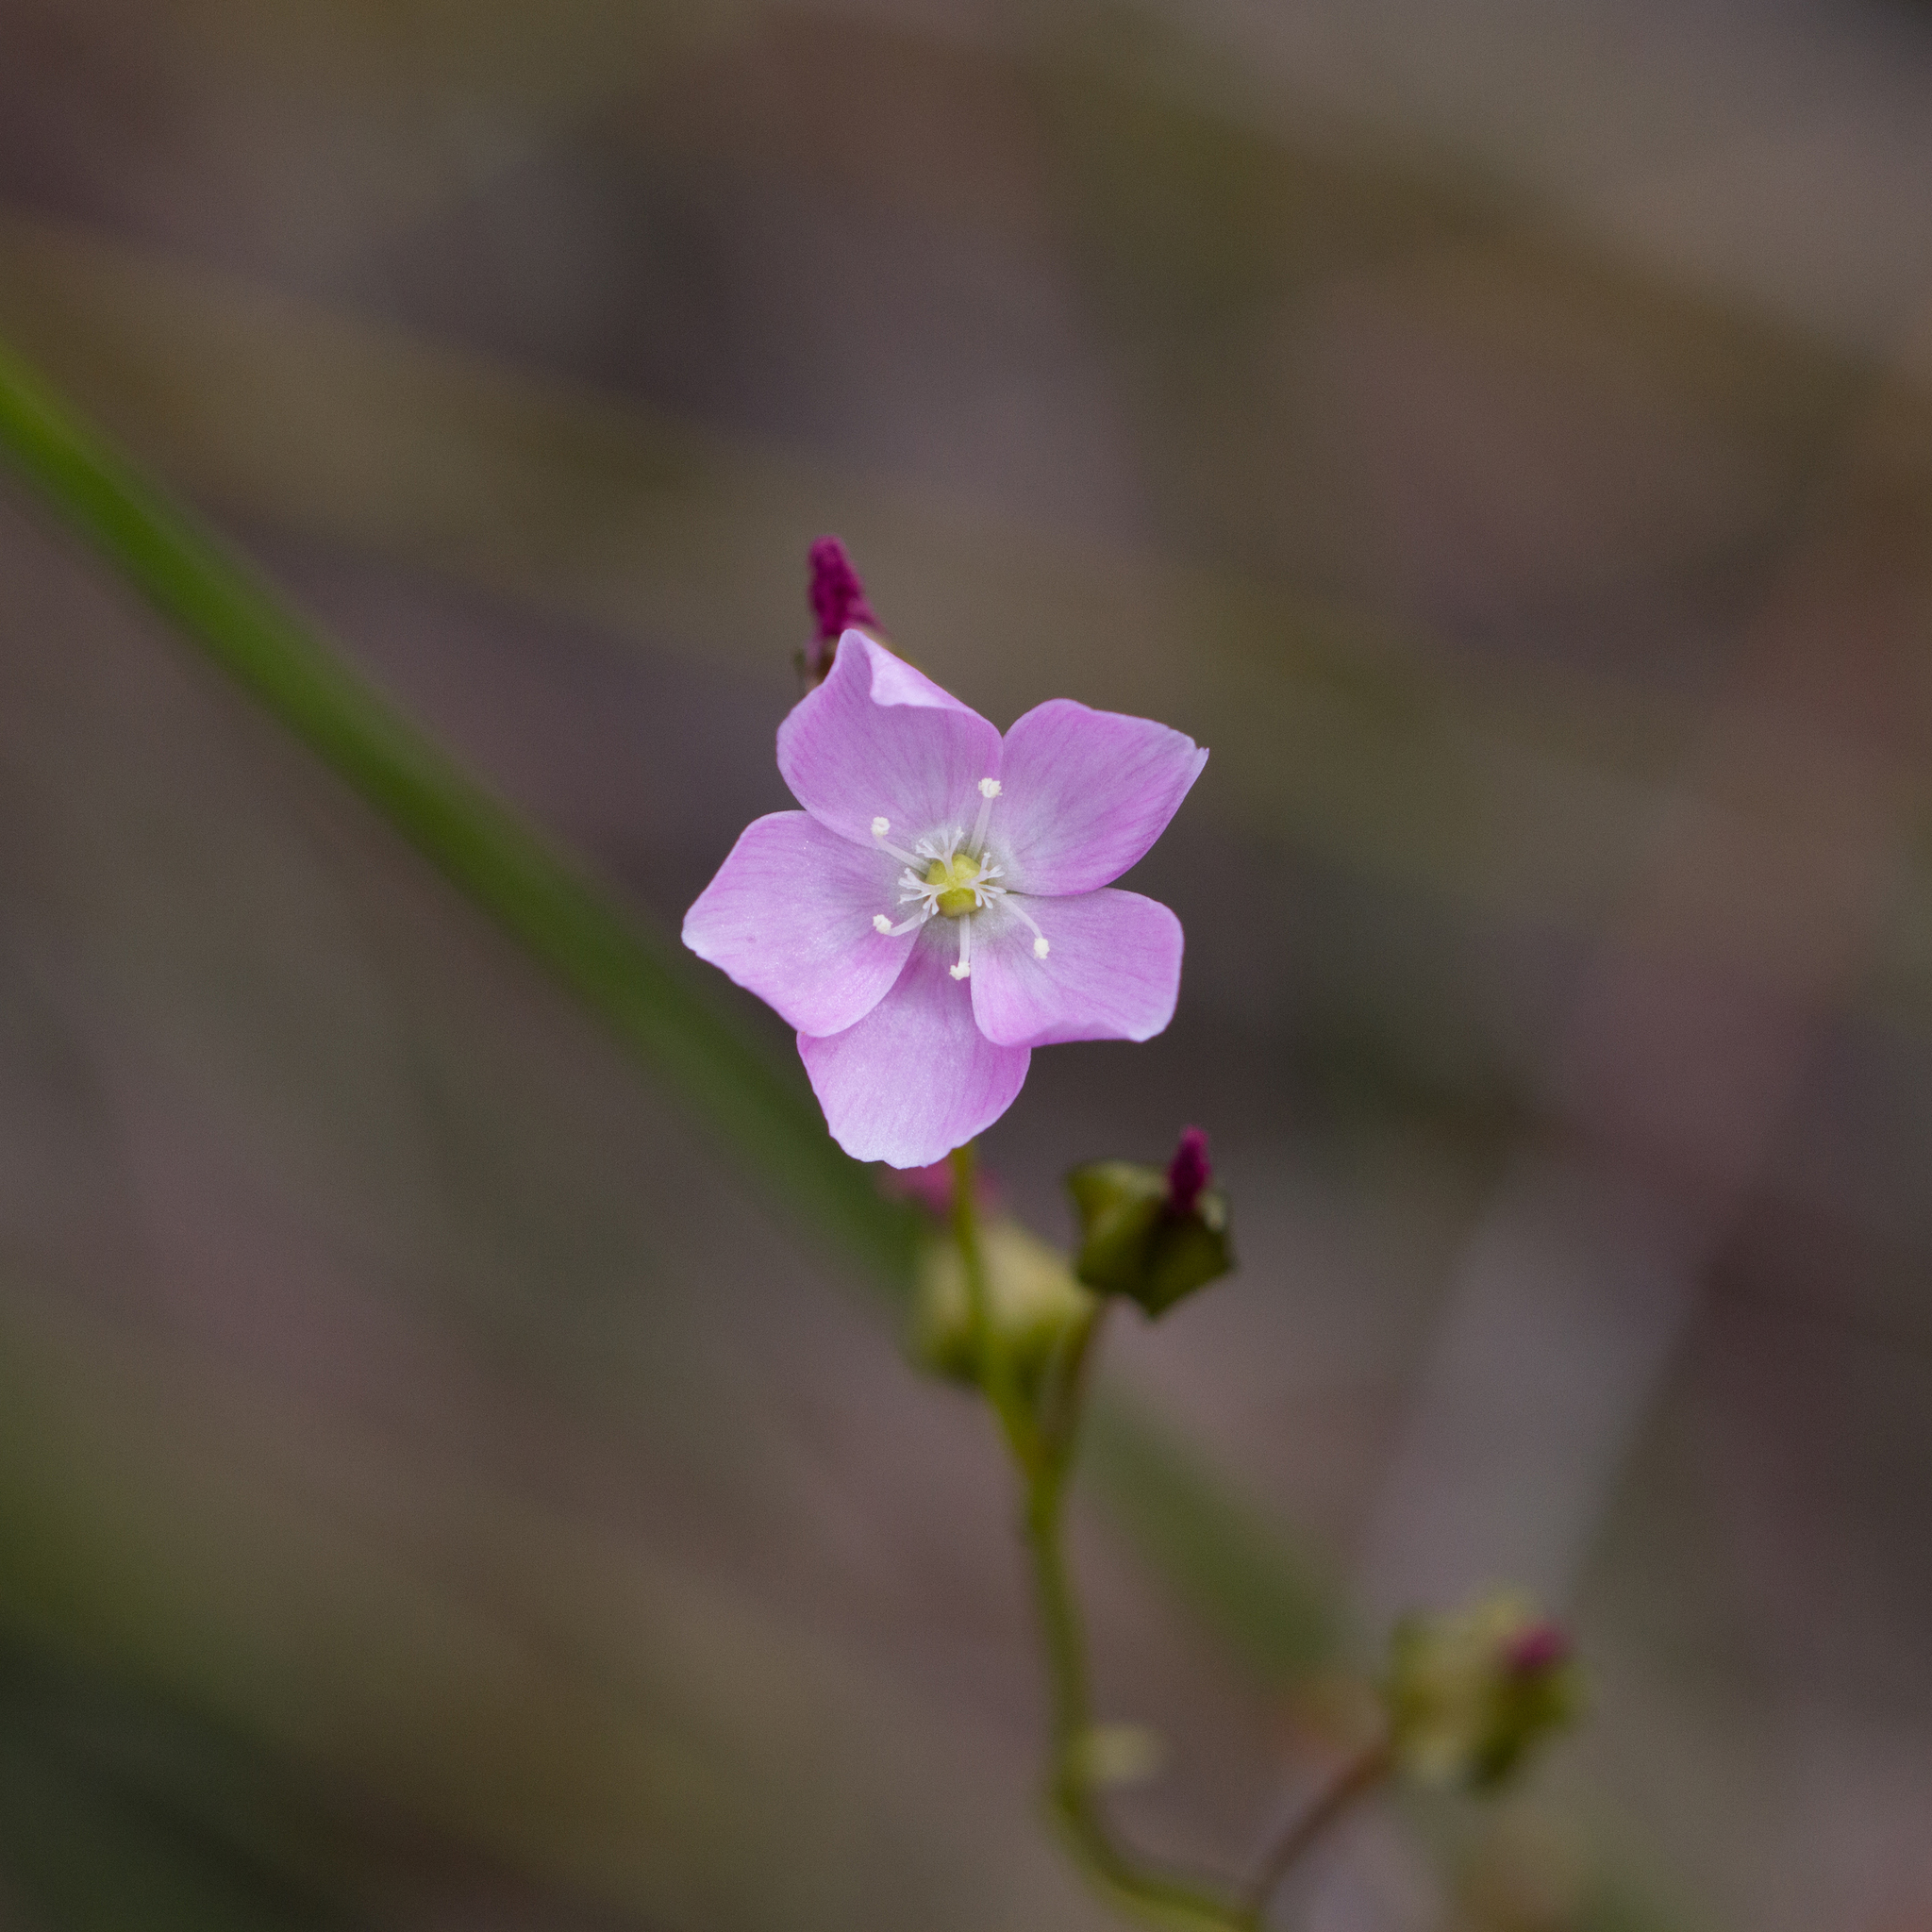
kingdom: Plantae
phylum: Tracheophyta
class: Magnoliopsida
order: Caryophyllales
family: Droseraceae
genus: Drosera
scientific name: Drosera peltata
